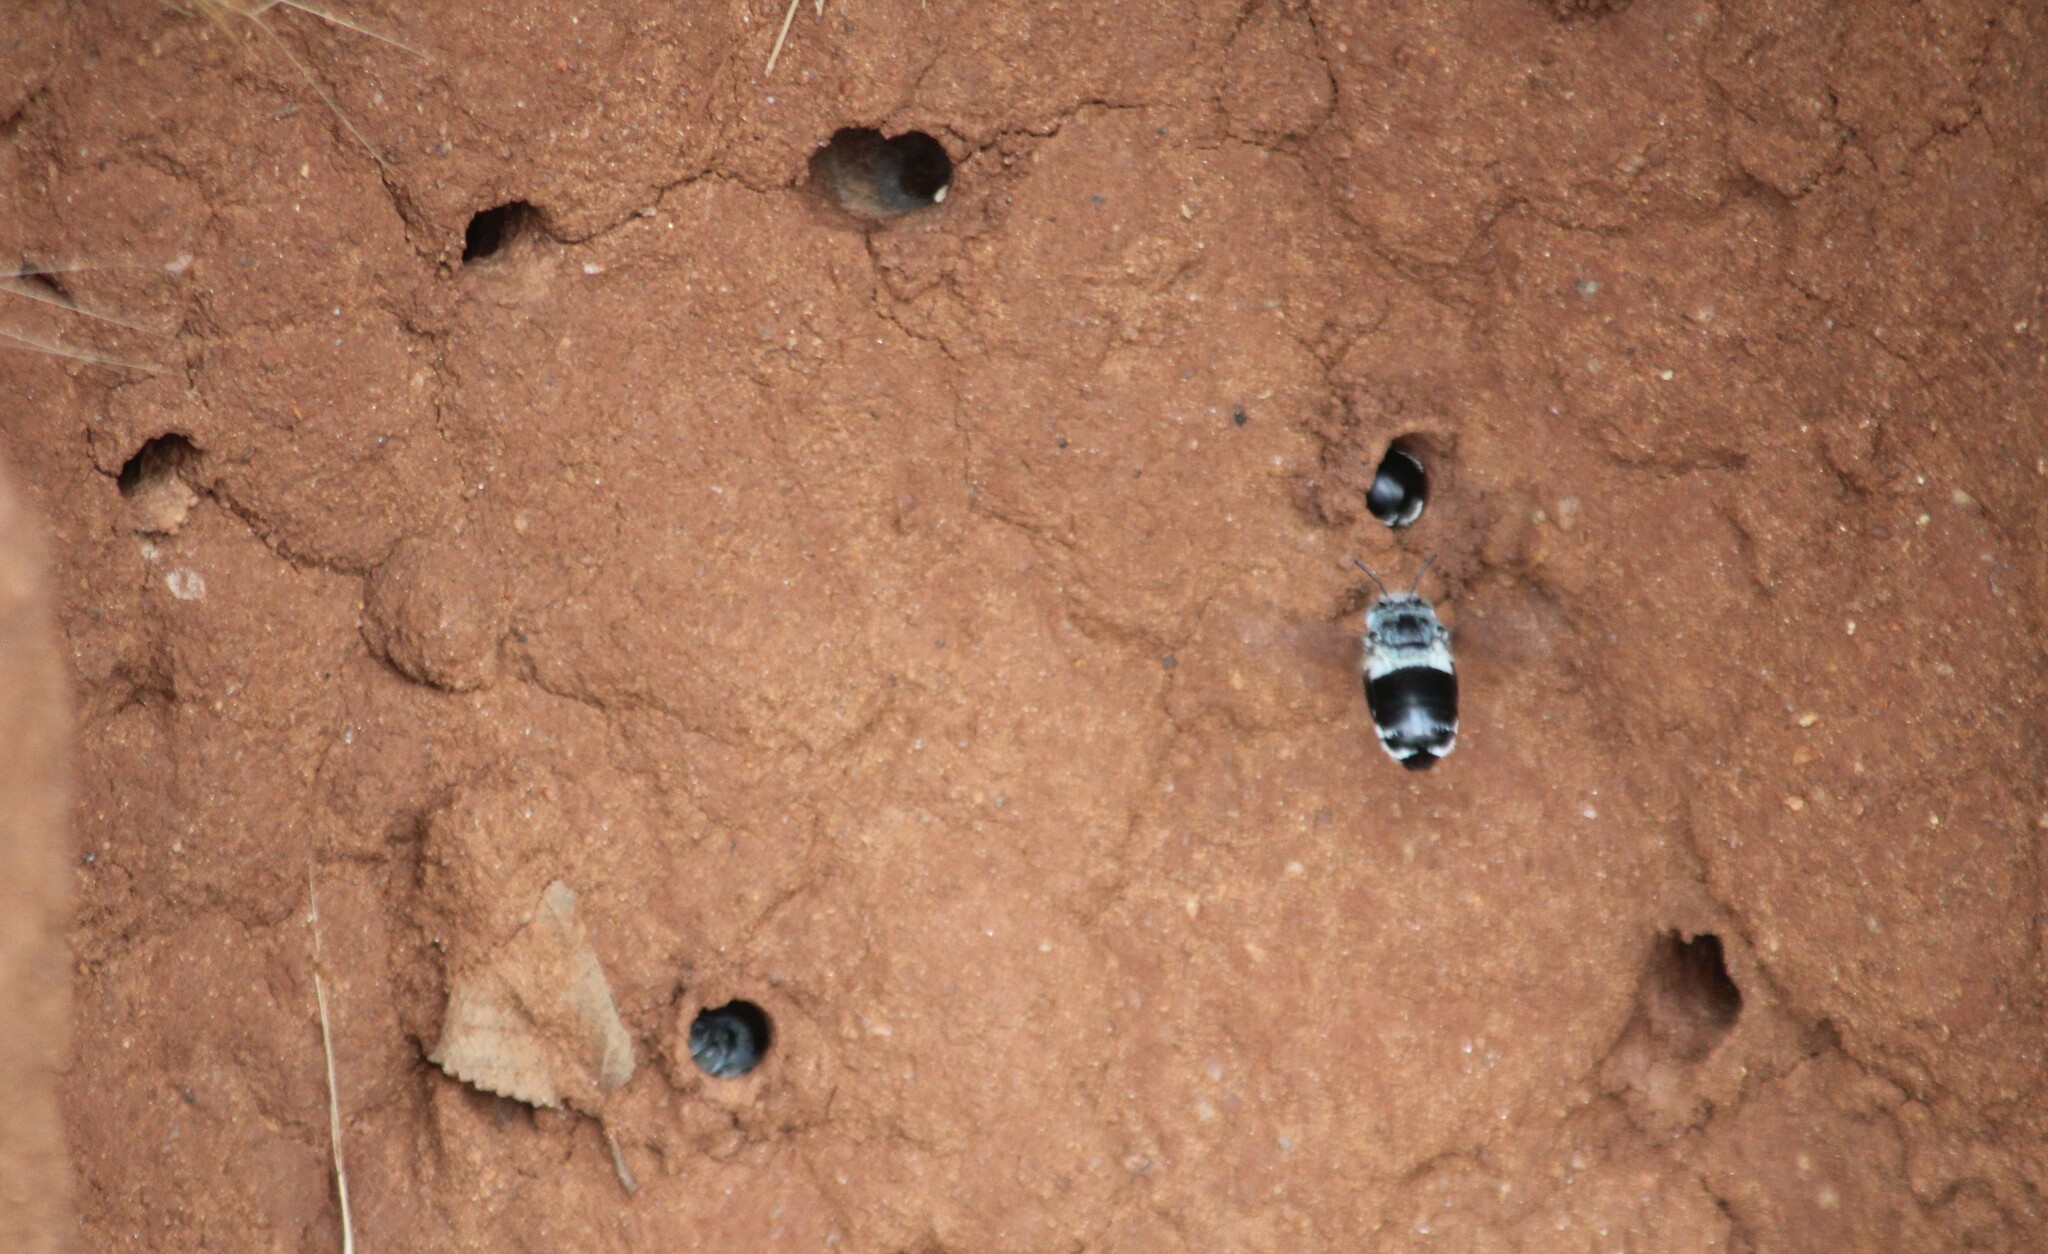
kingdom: Animalia
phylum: Arthropoda
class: Insecta
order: Hymenoptera
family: Apidae
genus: Amegilla
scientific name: Amegilla dizona
